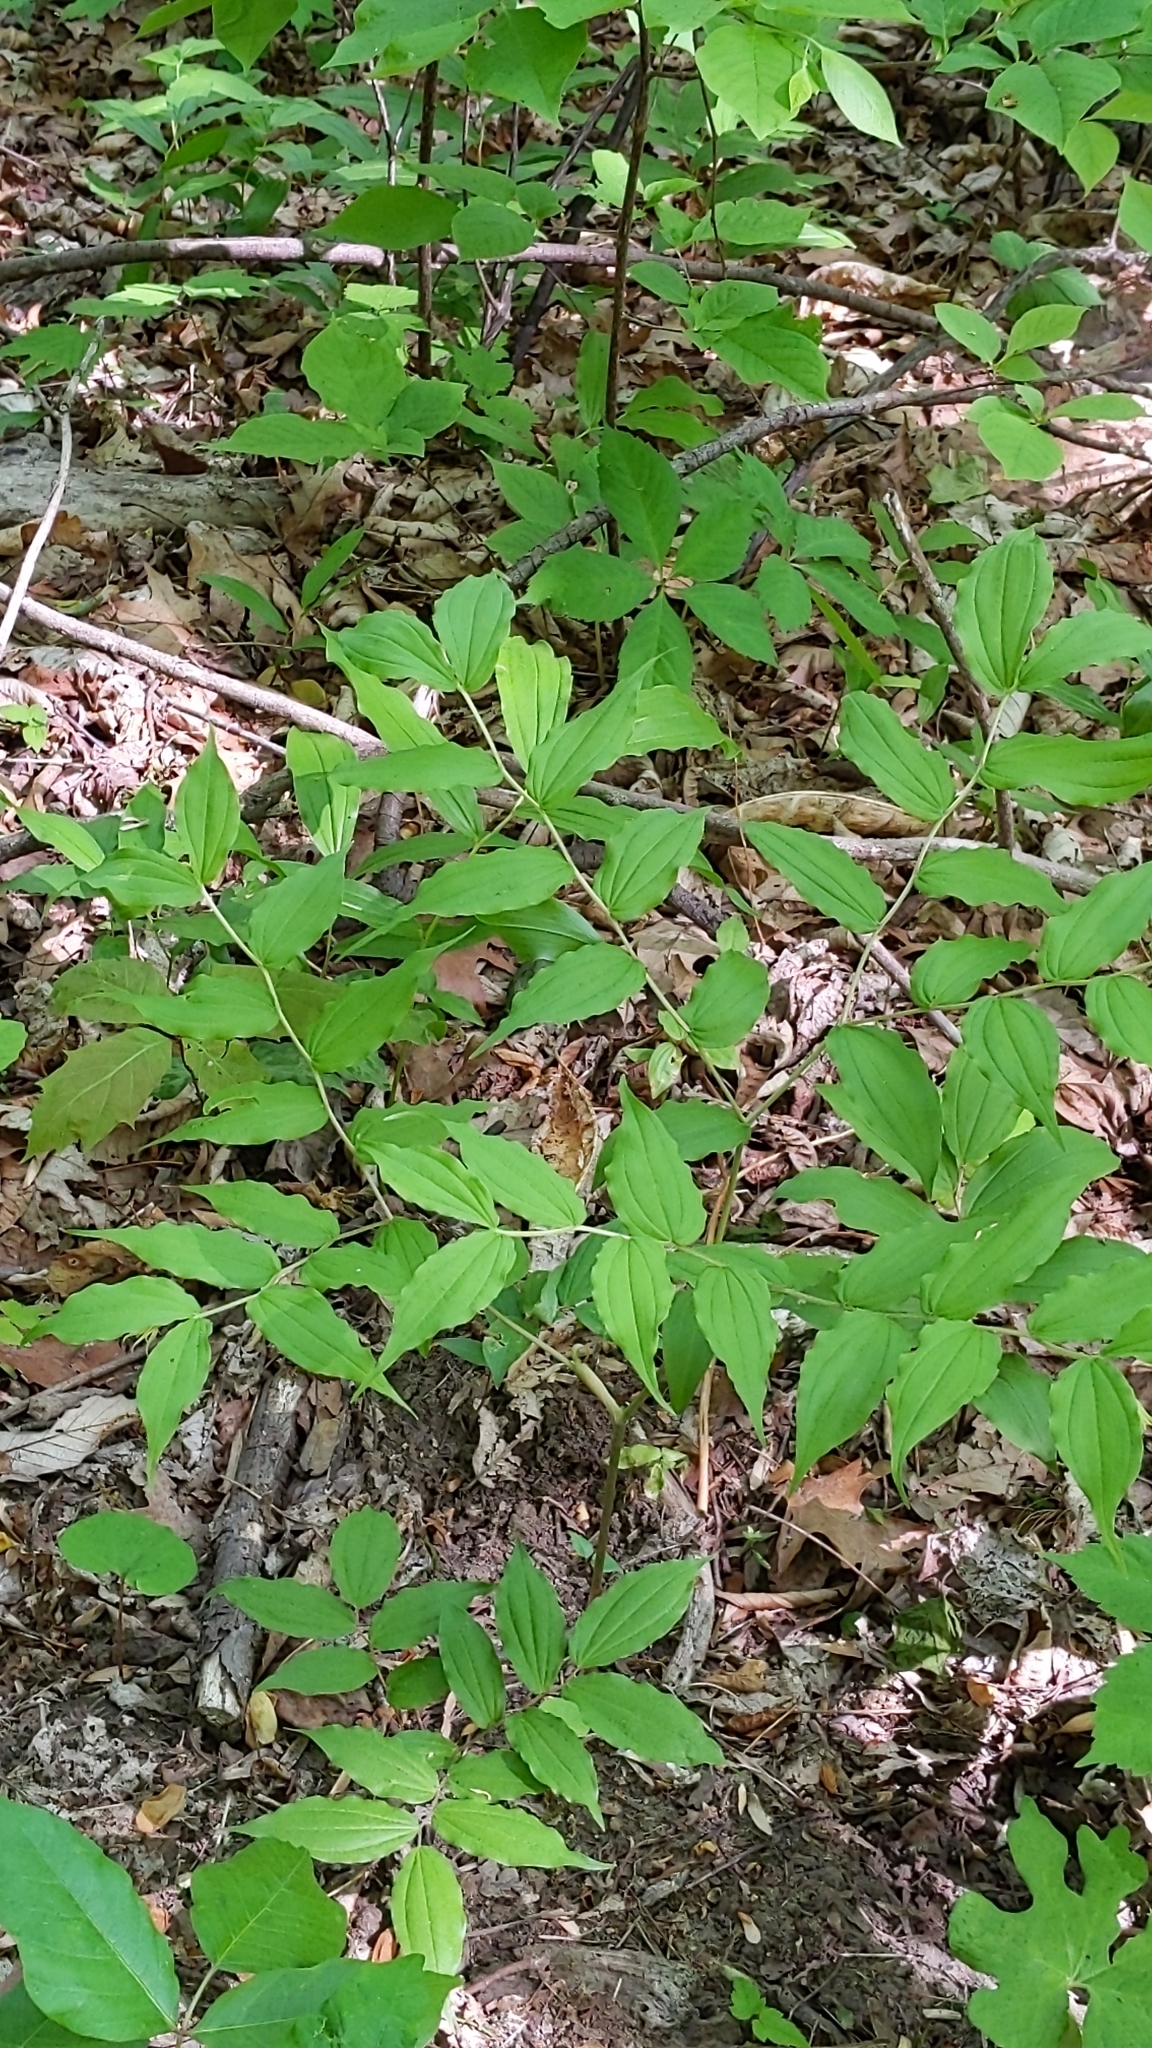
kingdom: Plantae
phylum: Tracheophyta
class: Liliopsida
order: Liliales
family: Liliaceae
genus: Prosartes
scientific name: Prosartes lanuginosa
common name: Hairy mandarin
